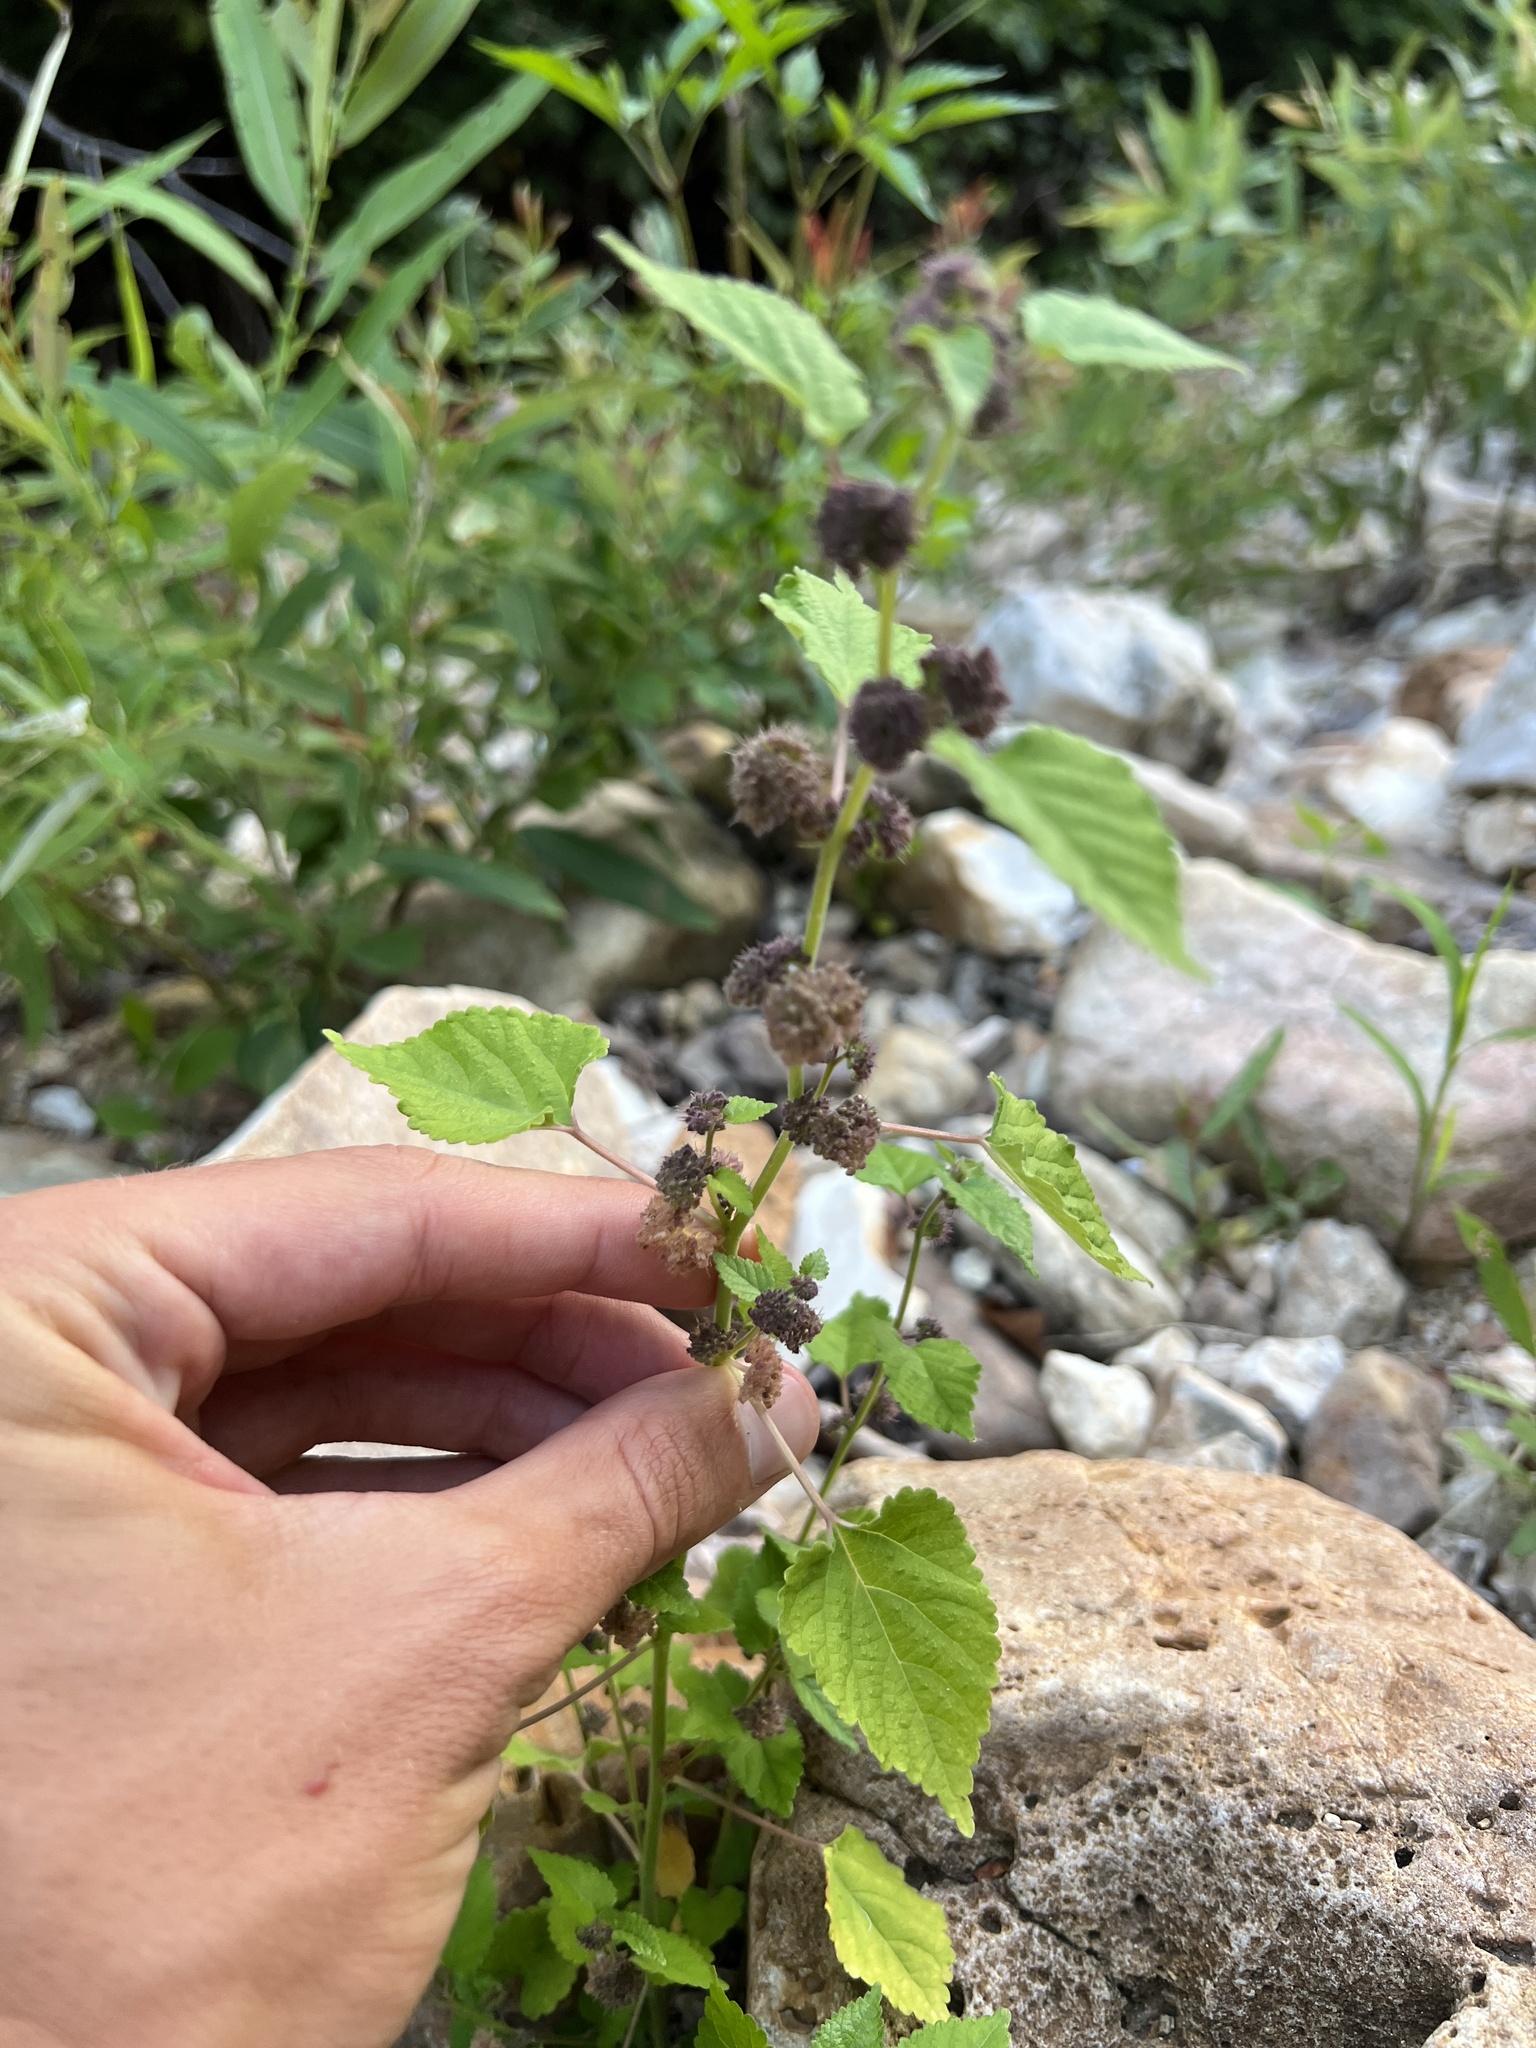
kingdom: Plantae
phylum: Tracheophyta
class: Magnoliopsida
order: Rosales
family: Moraceae
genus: Fatoua
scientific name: Fatoua villosa
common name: Hairy crabweed
